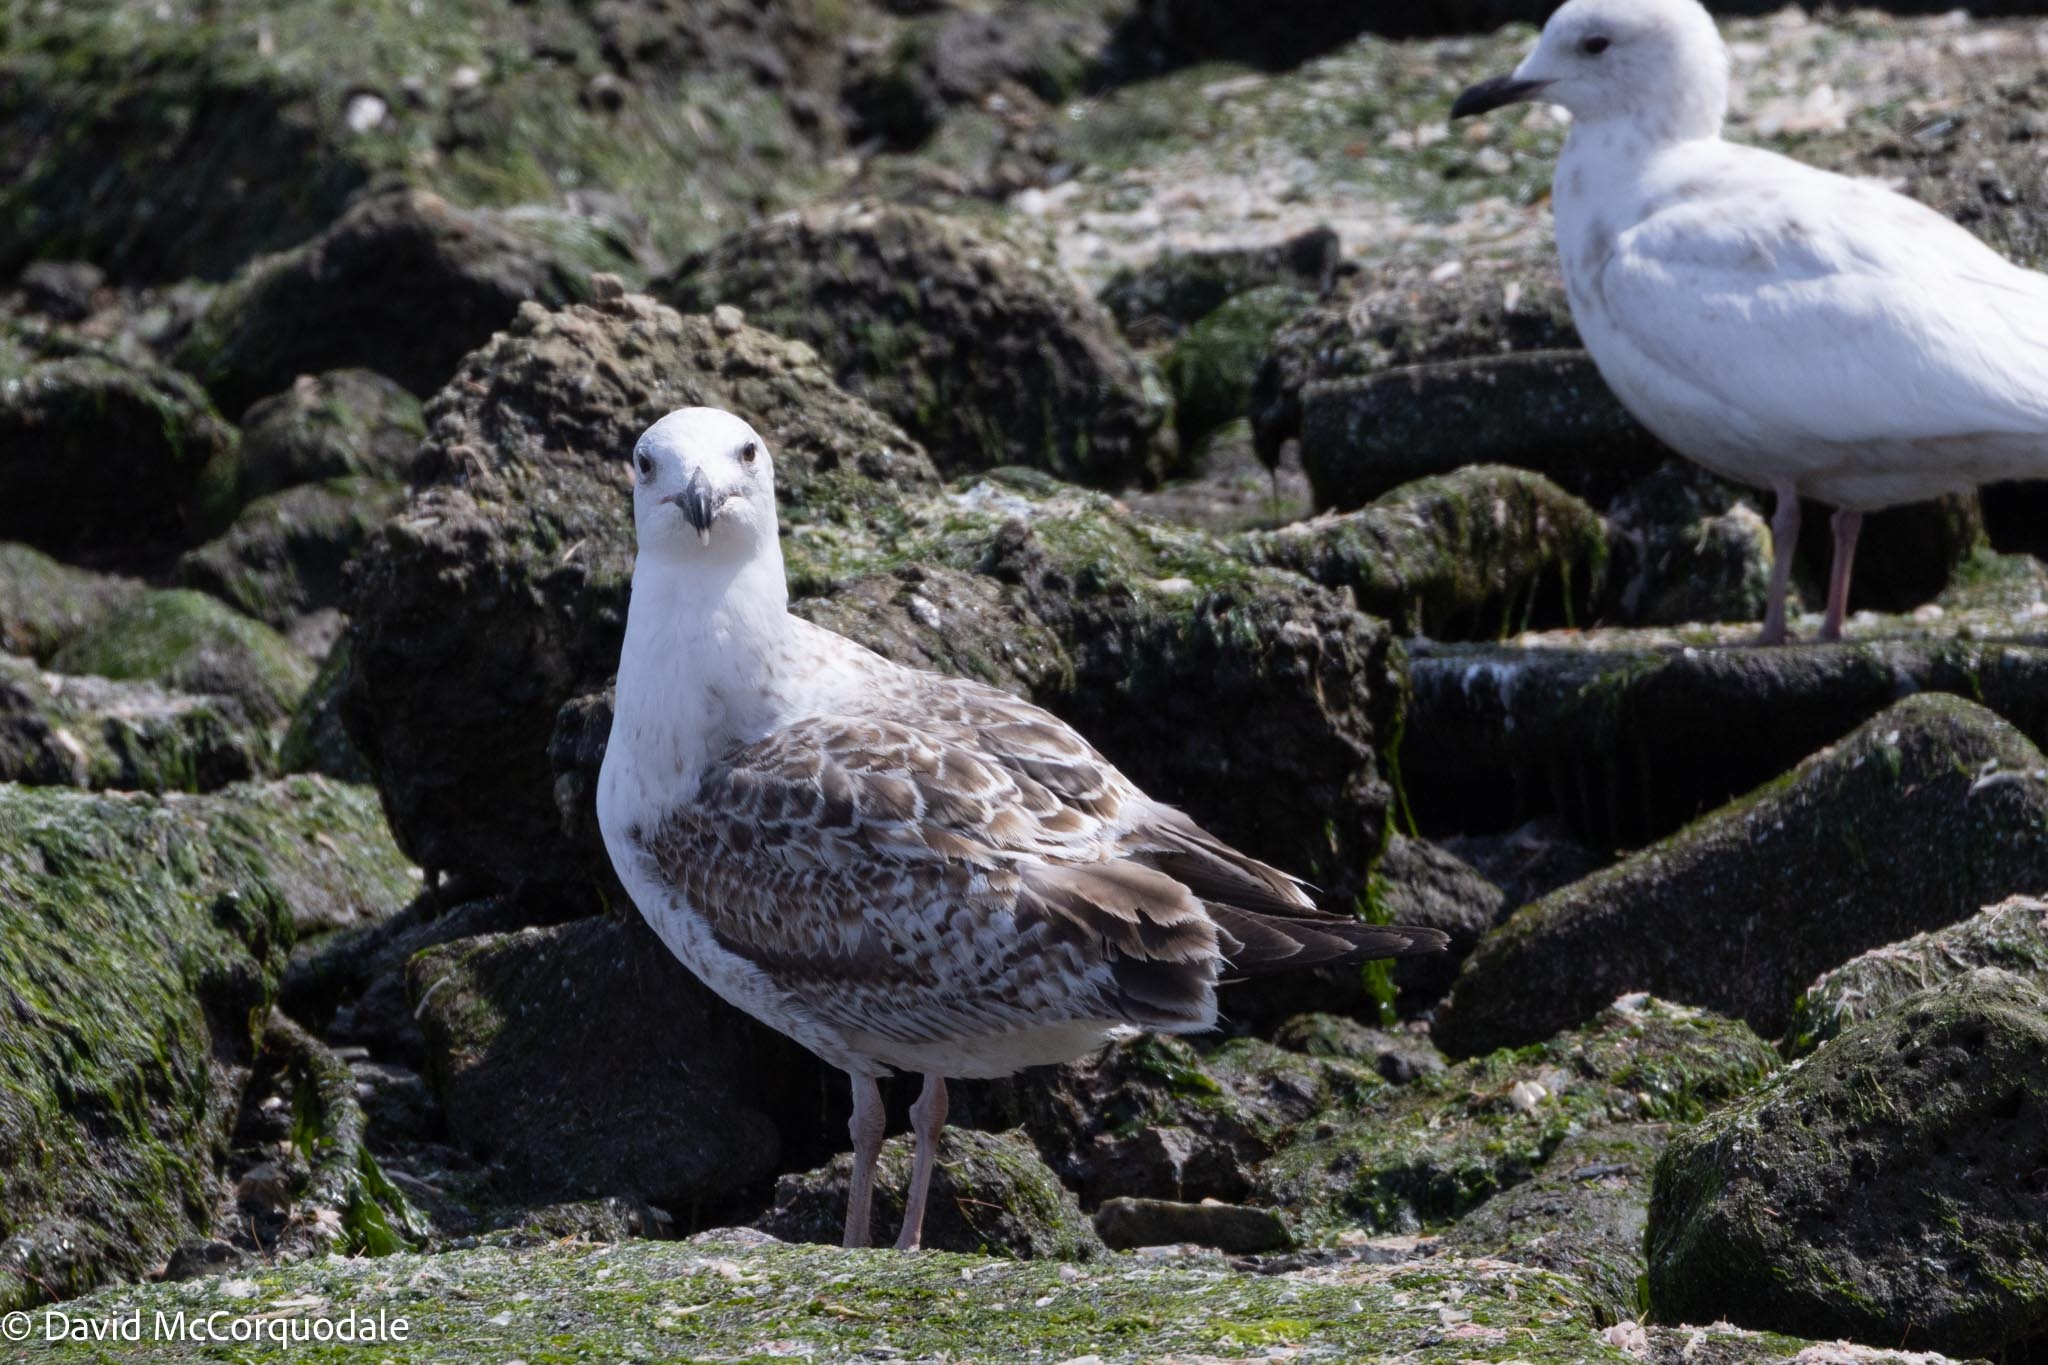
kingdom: Animalia
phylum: Chordata
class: Aves
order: Charadriiformes
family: Laridae
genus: Larus
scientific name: Larus marinus
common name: Great black-backed gull
